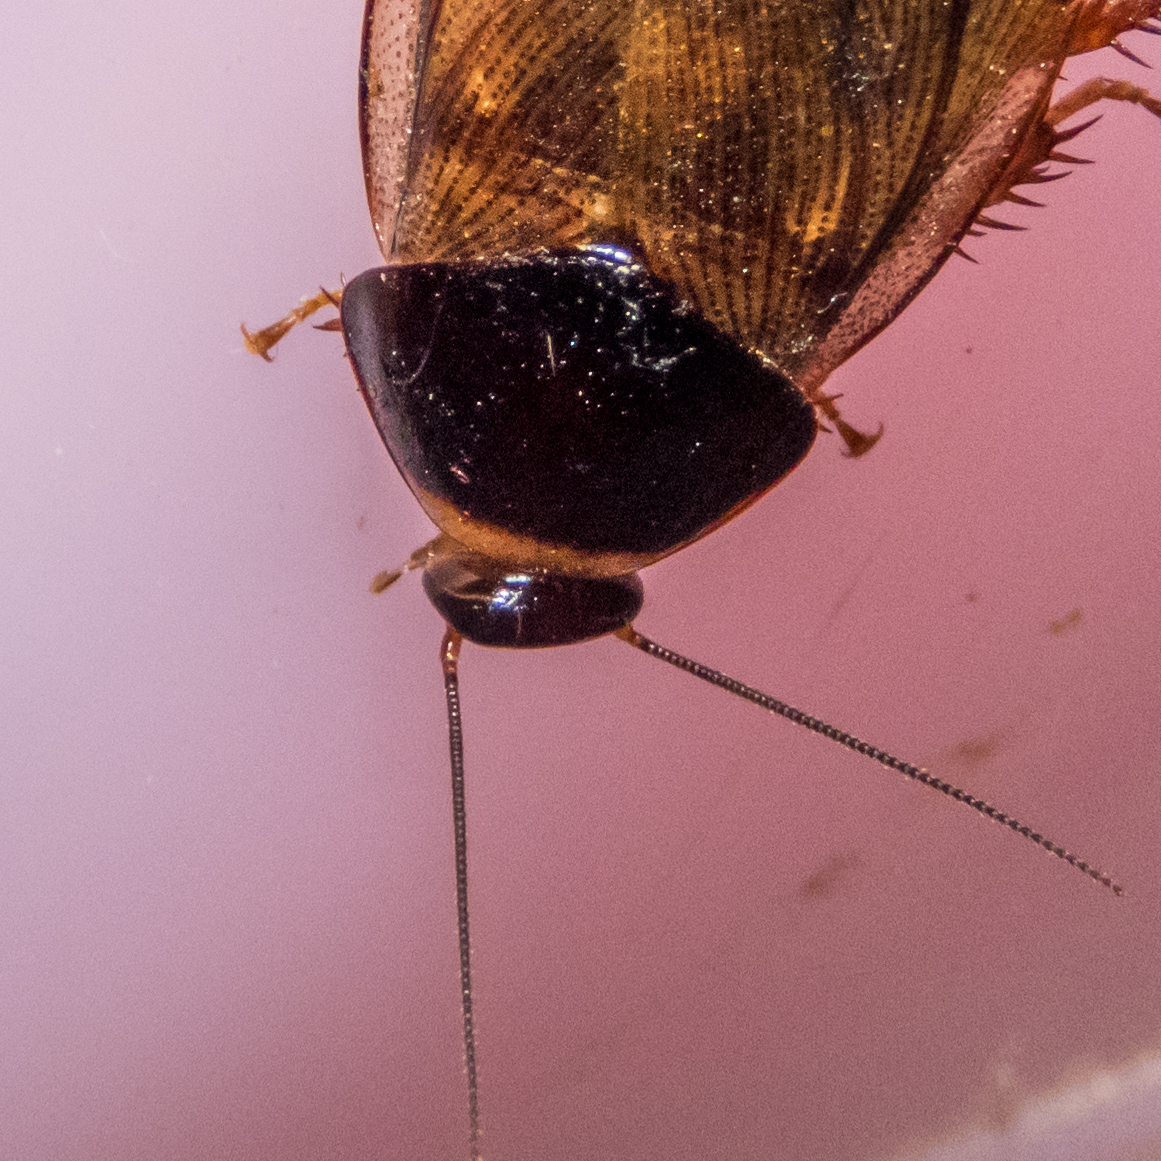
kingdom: Animalia
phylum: Arthropoda
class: Insecta
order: Blattodea
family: Blaberidae
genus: Pycnoscelus
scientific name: Pycnoscelus indicus
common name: Burrowing cockroach
